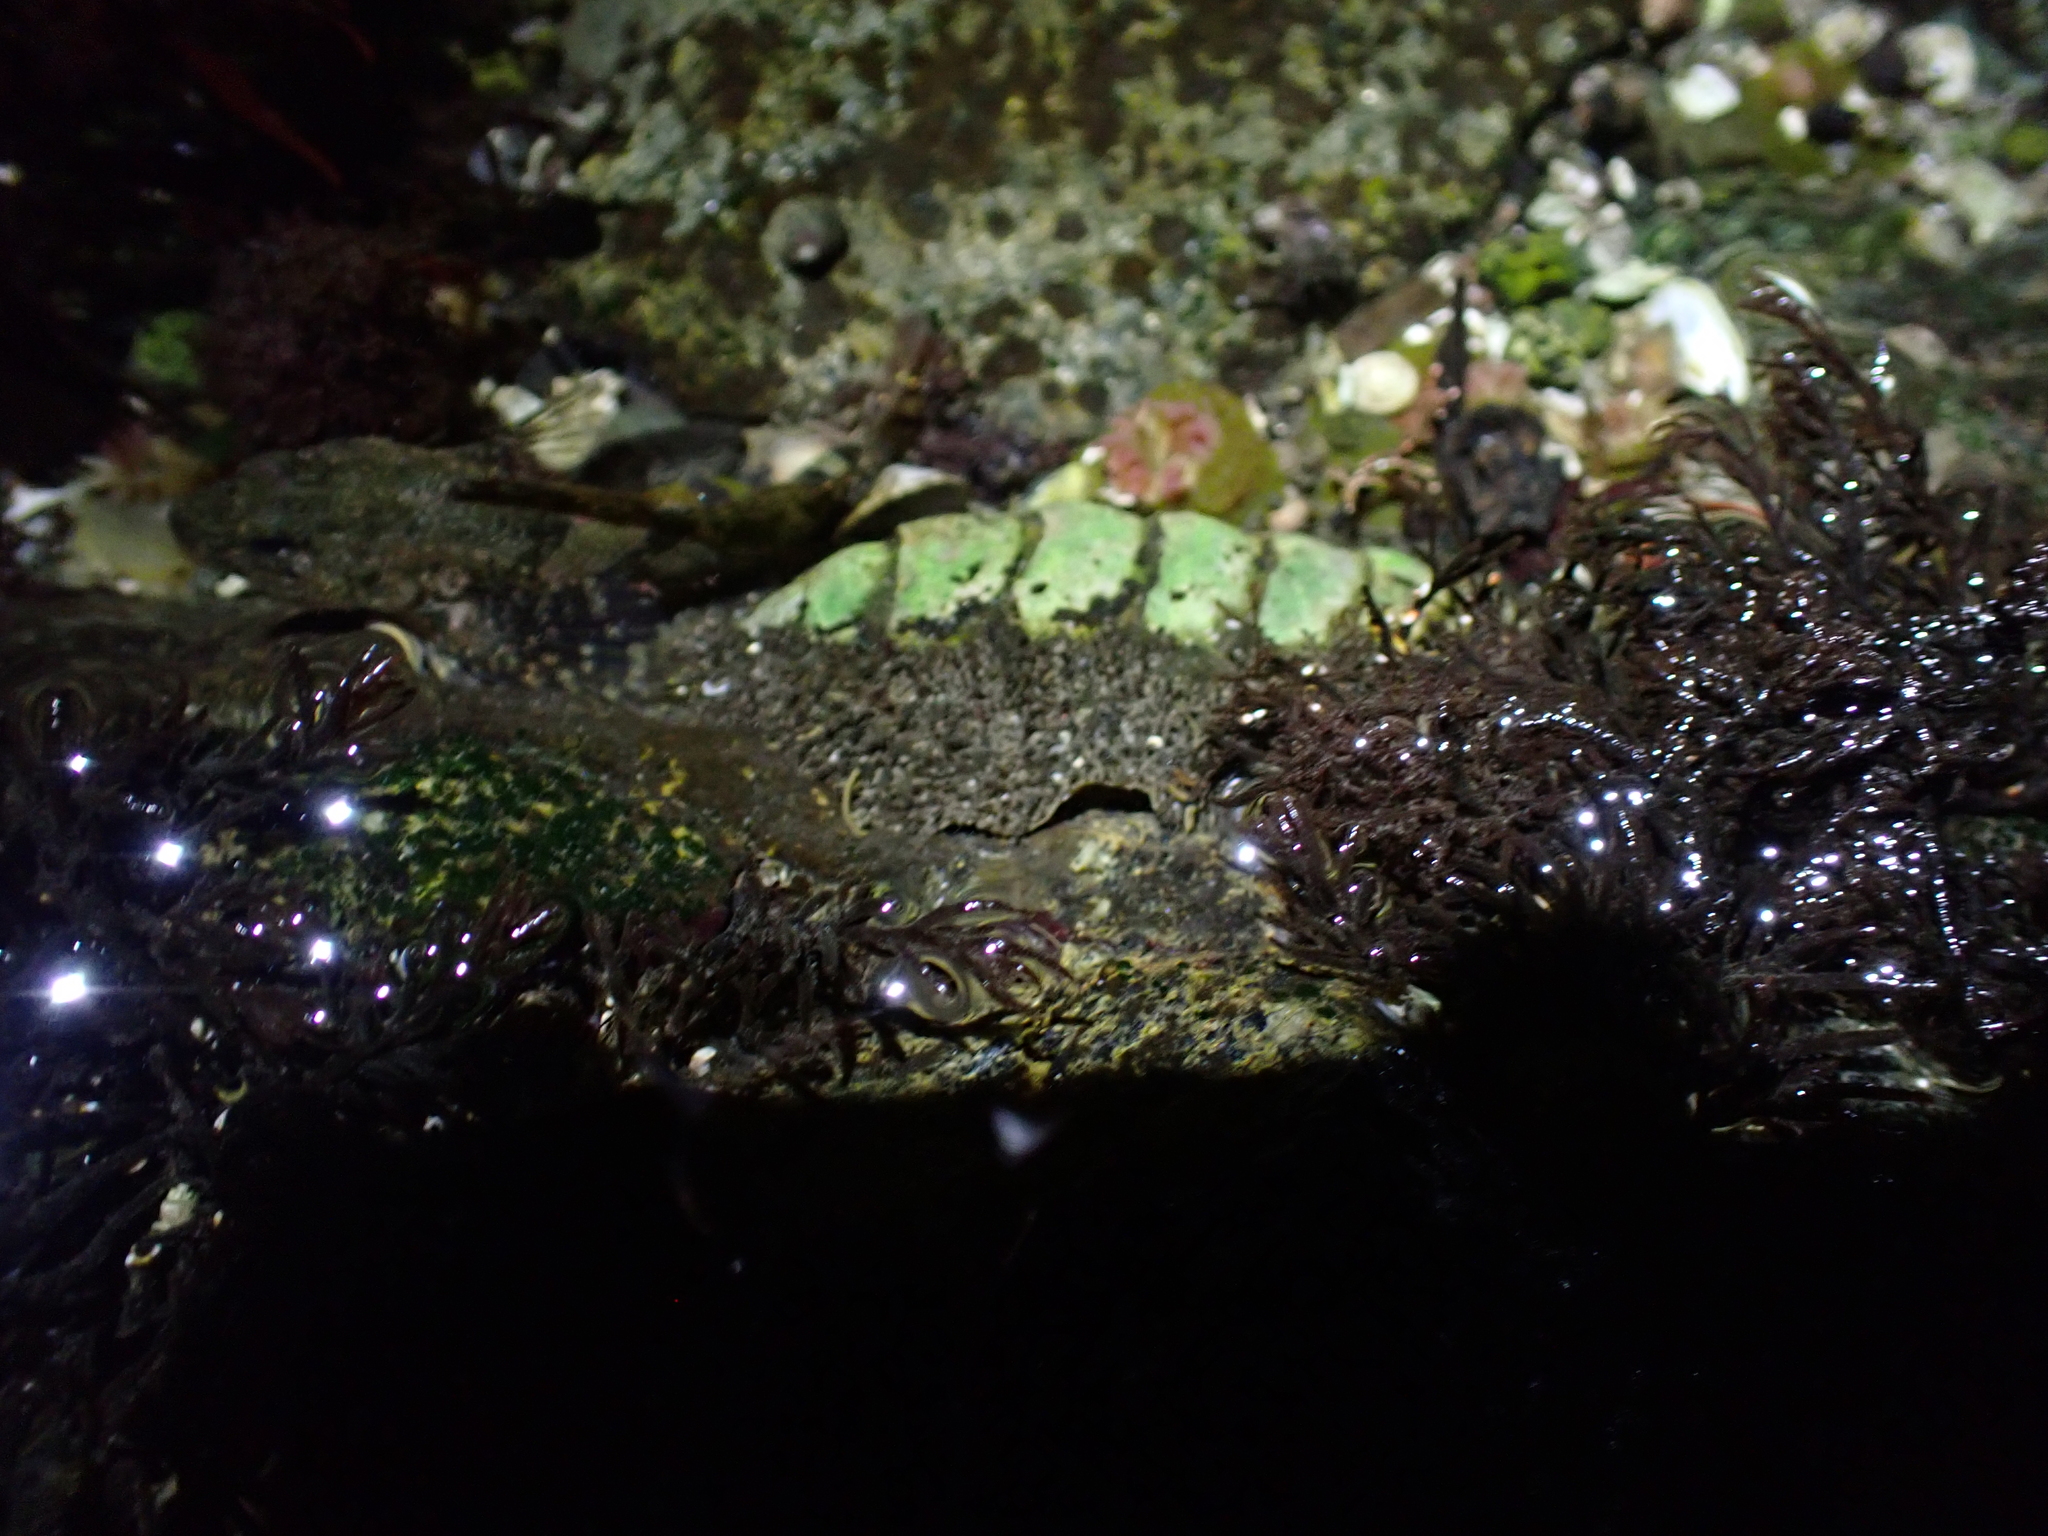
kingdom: Animalia
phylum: Mollusca
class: Polyplacophora
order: Chitonida
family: Mopaliidae
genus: Mopalia
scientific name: Mopalia muscosa
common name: Mossy chiton
